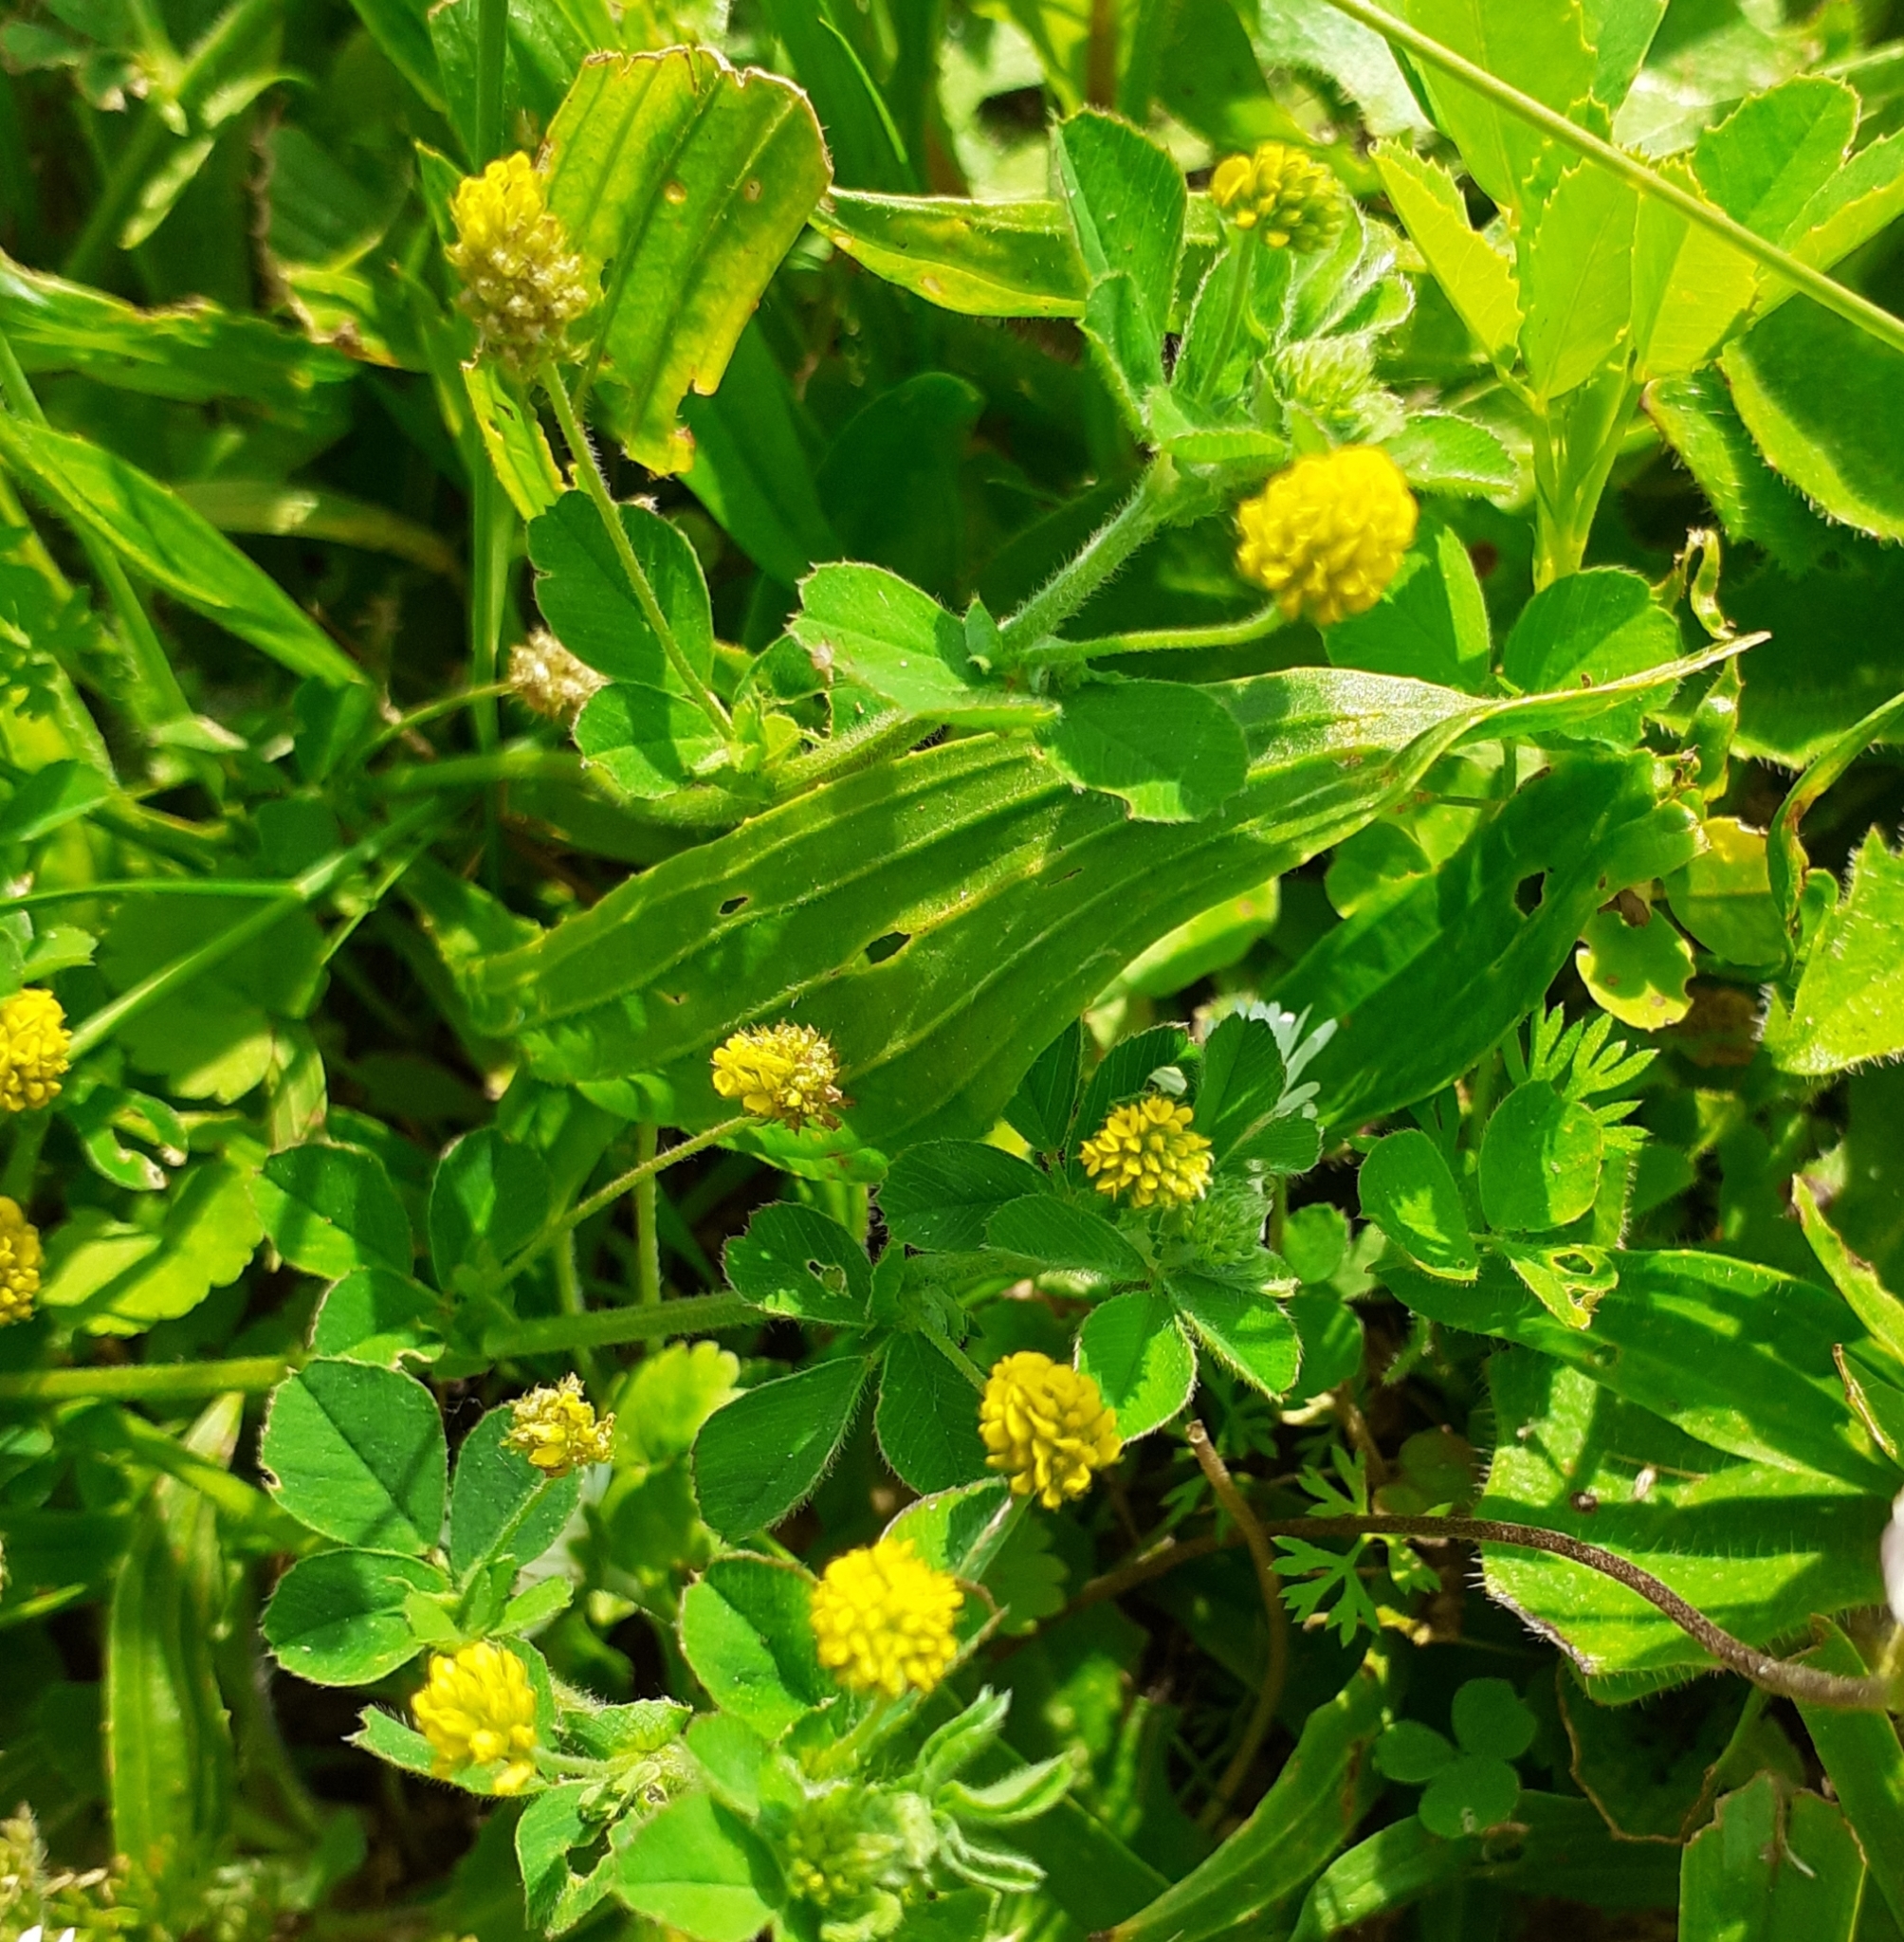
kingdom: Plantae
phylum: Tracheophyta
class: Magnoliopsida
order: Fabales
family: Fabaceae
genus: Medicago
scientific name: Medicago lupulina
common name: Black medick
